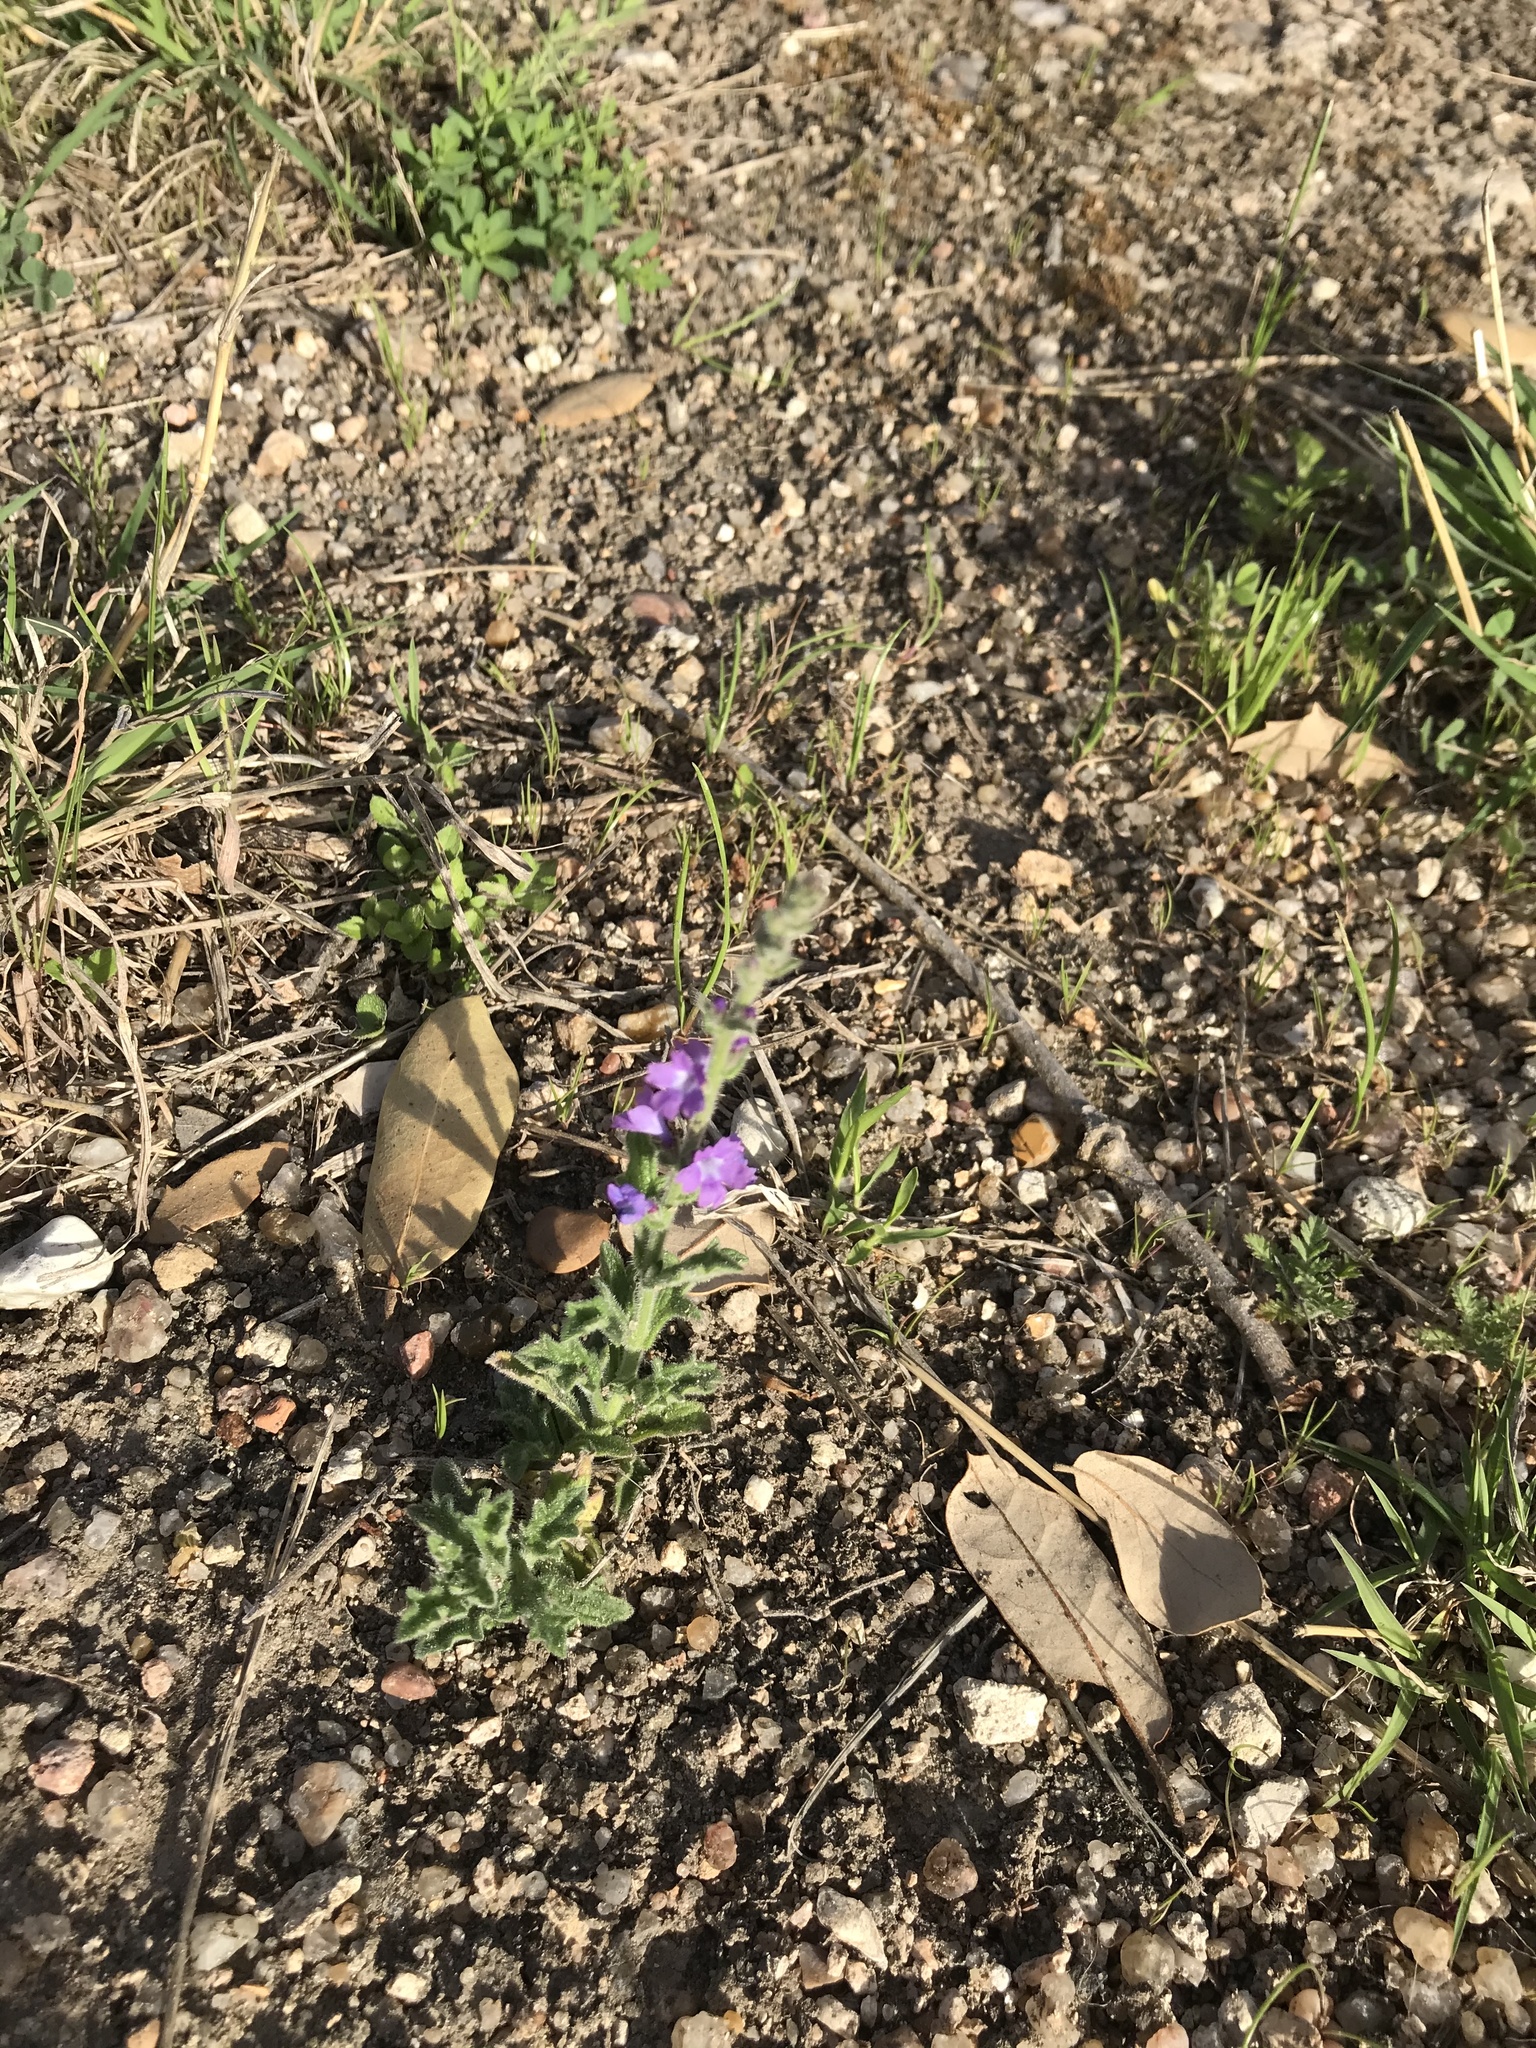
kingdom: Plantae
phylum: Tracheophyta
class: Magnoliopsida
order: Lamiales
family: Verbenaceae
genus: Verbena
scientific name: Verbena canescens
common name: Gray vervain
